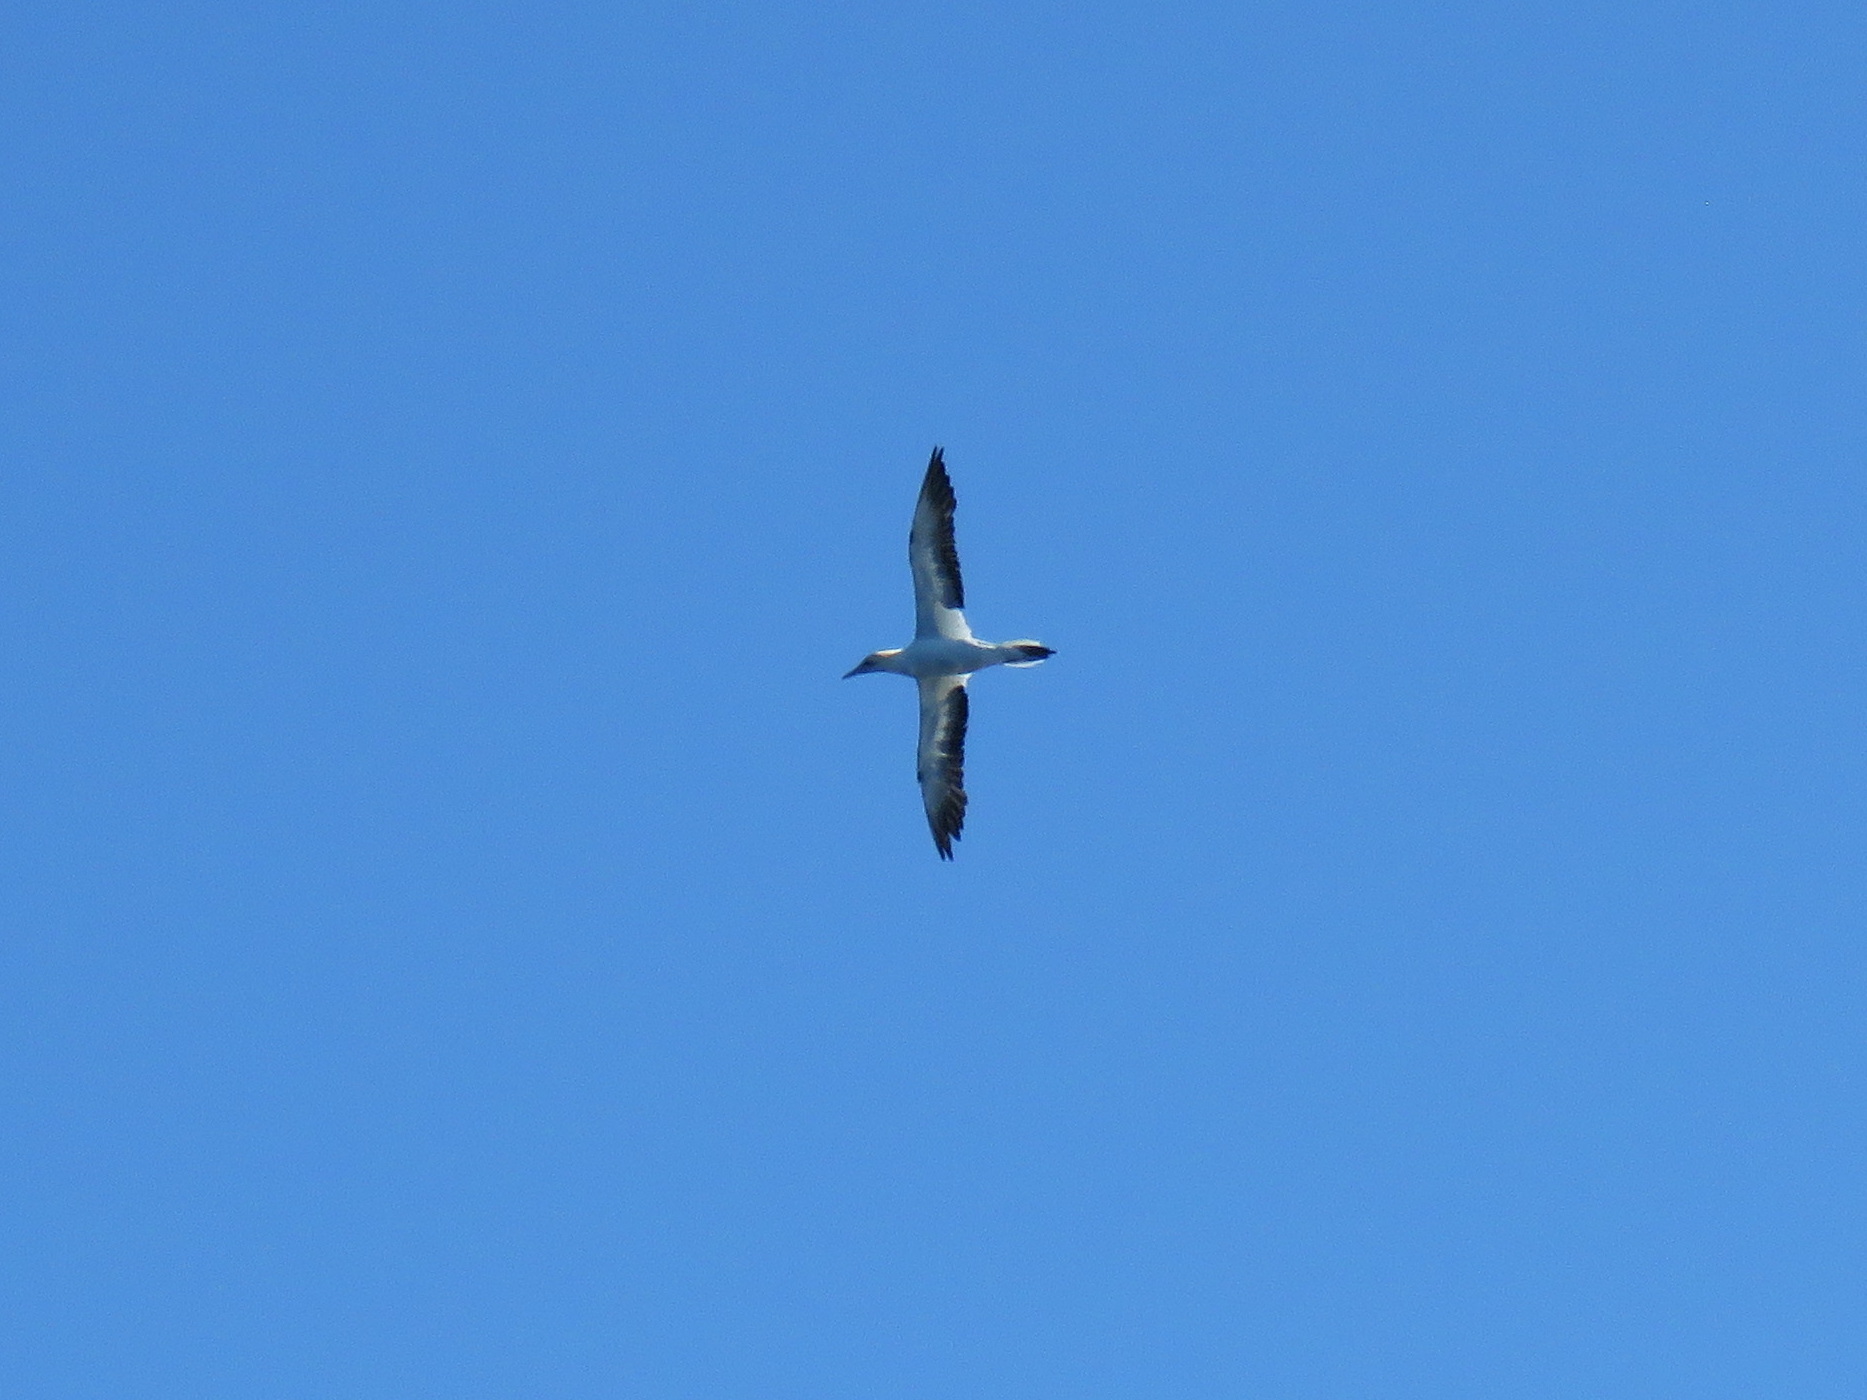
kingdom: Animalia
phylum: Chordata
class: Aves
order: Suliformes
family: Sulidae
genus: Morus
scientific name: Morus serrator
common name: Australasian gannet
